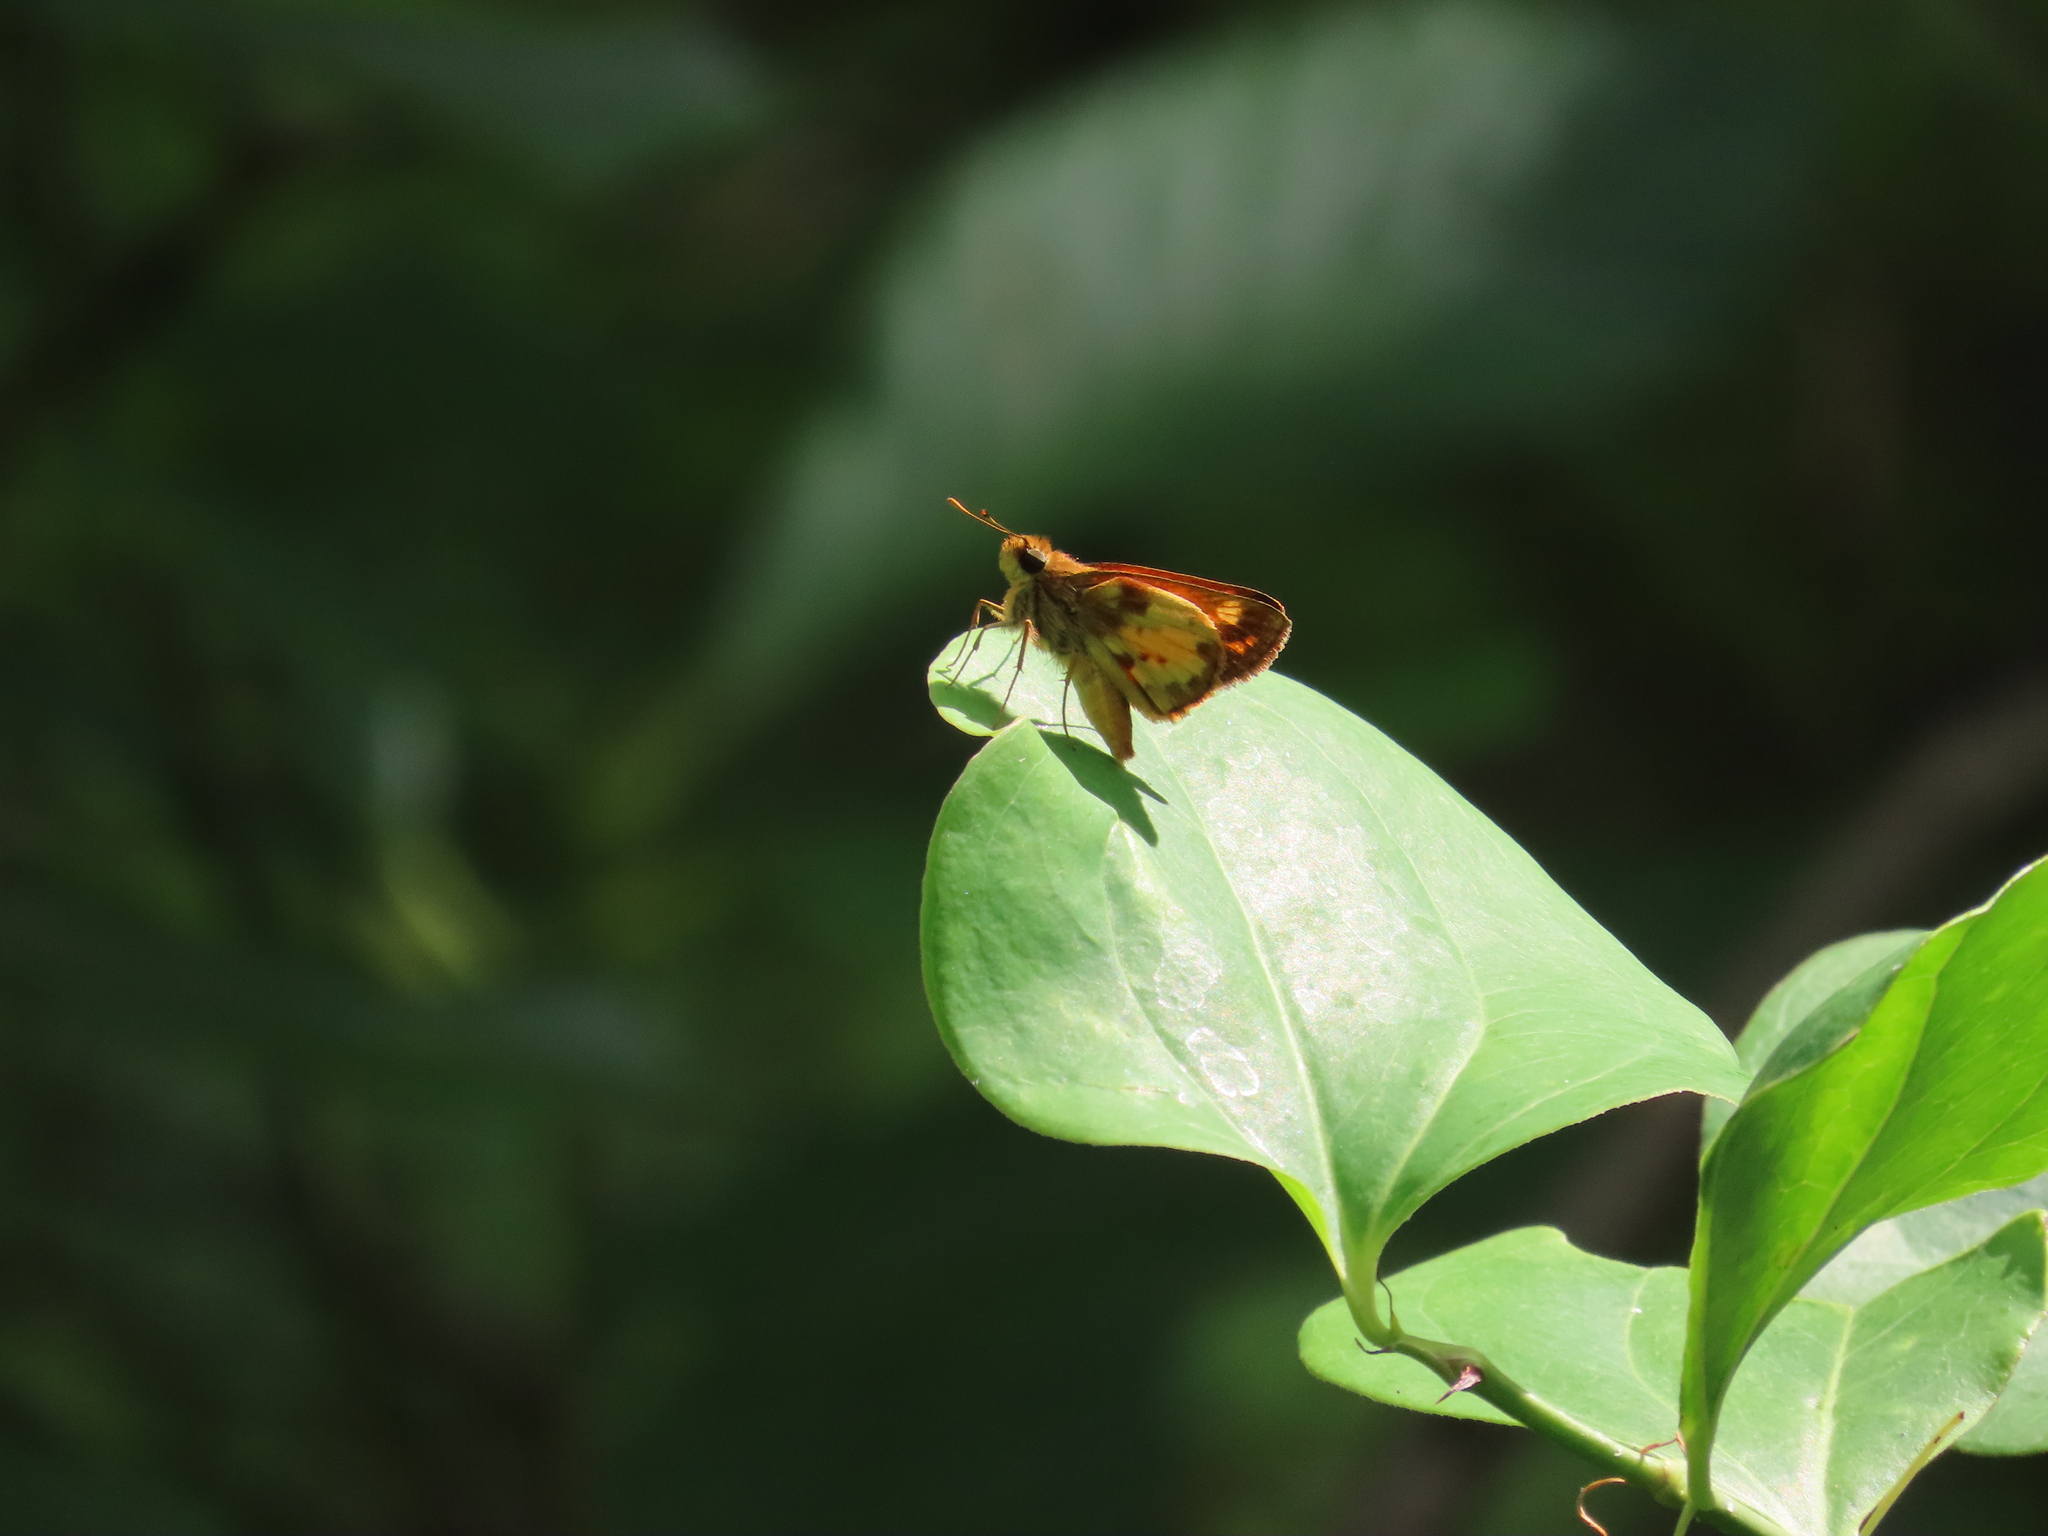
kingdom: Animalia
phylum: Arthropoda
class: Insecta
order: Lepidoptera
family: Hesperiidae
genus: Lon
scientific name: Lon zabulon
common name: Zabulon skipper
